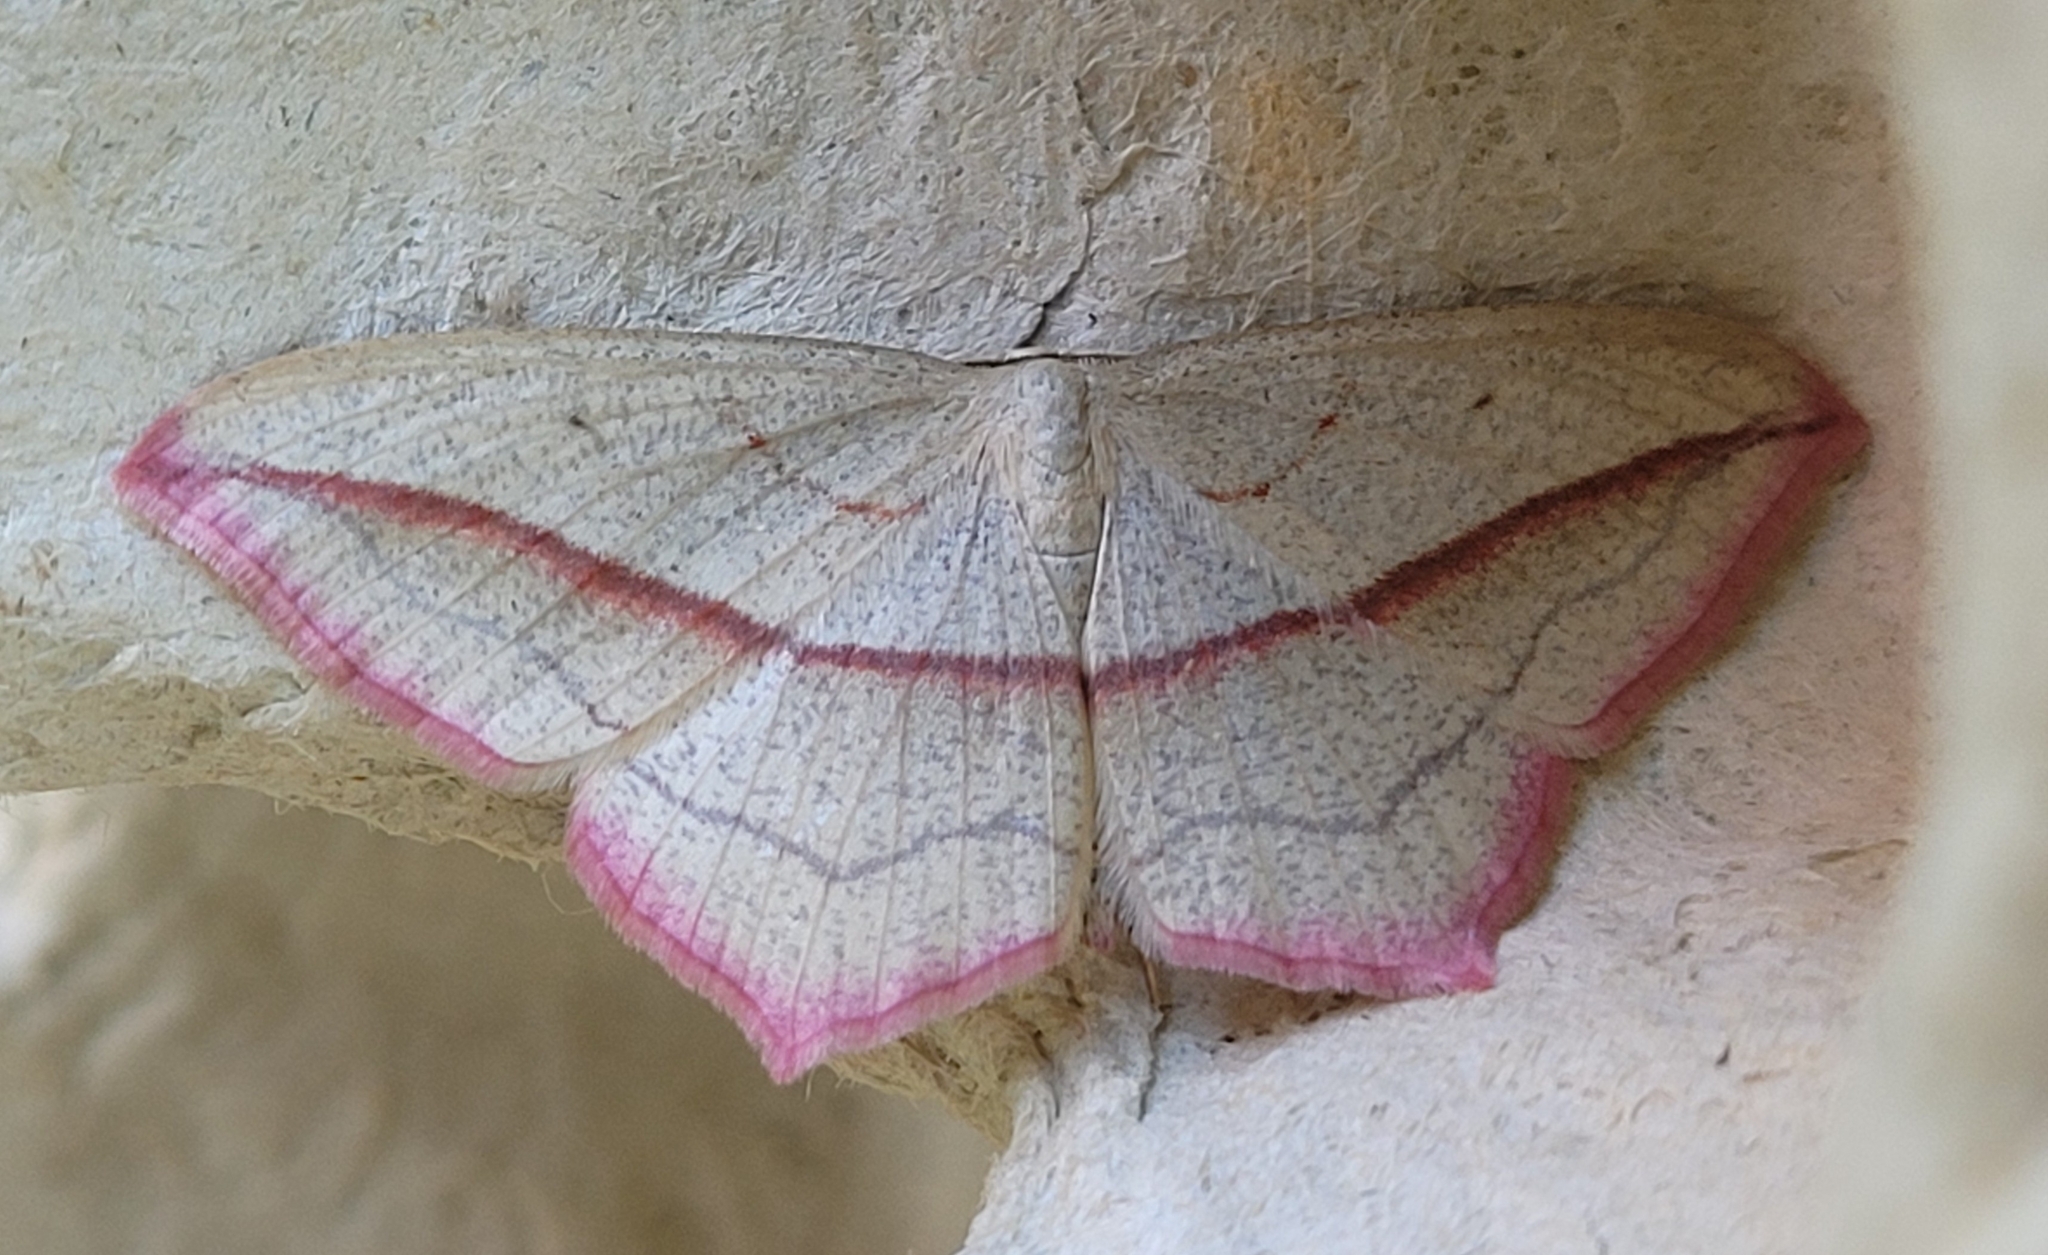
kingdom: Animalia
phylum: Arthropoda
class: Insecta
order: Lepidoptera
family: Geometridae
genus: Timandra
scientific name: Timandra comae
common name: Blood-vein
